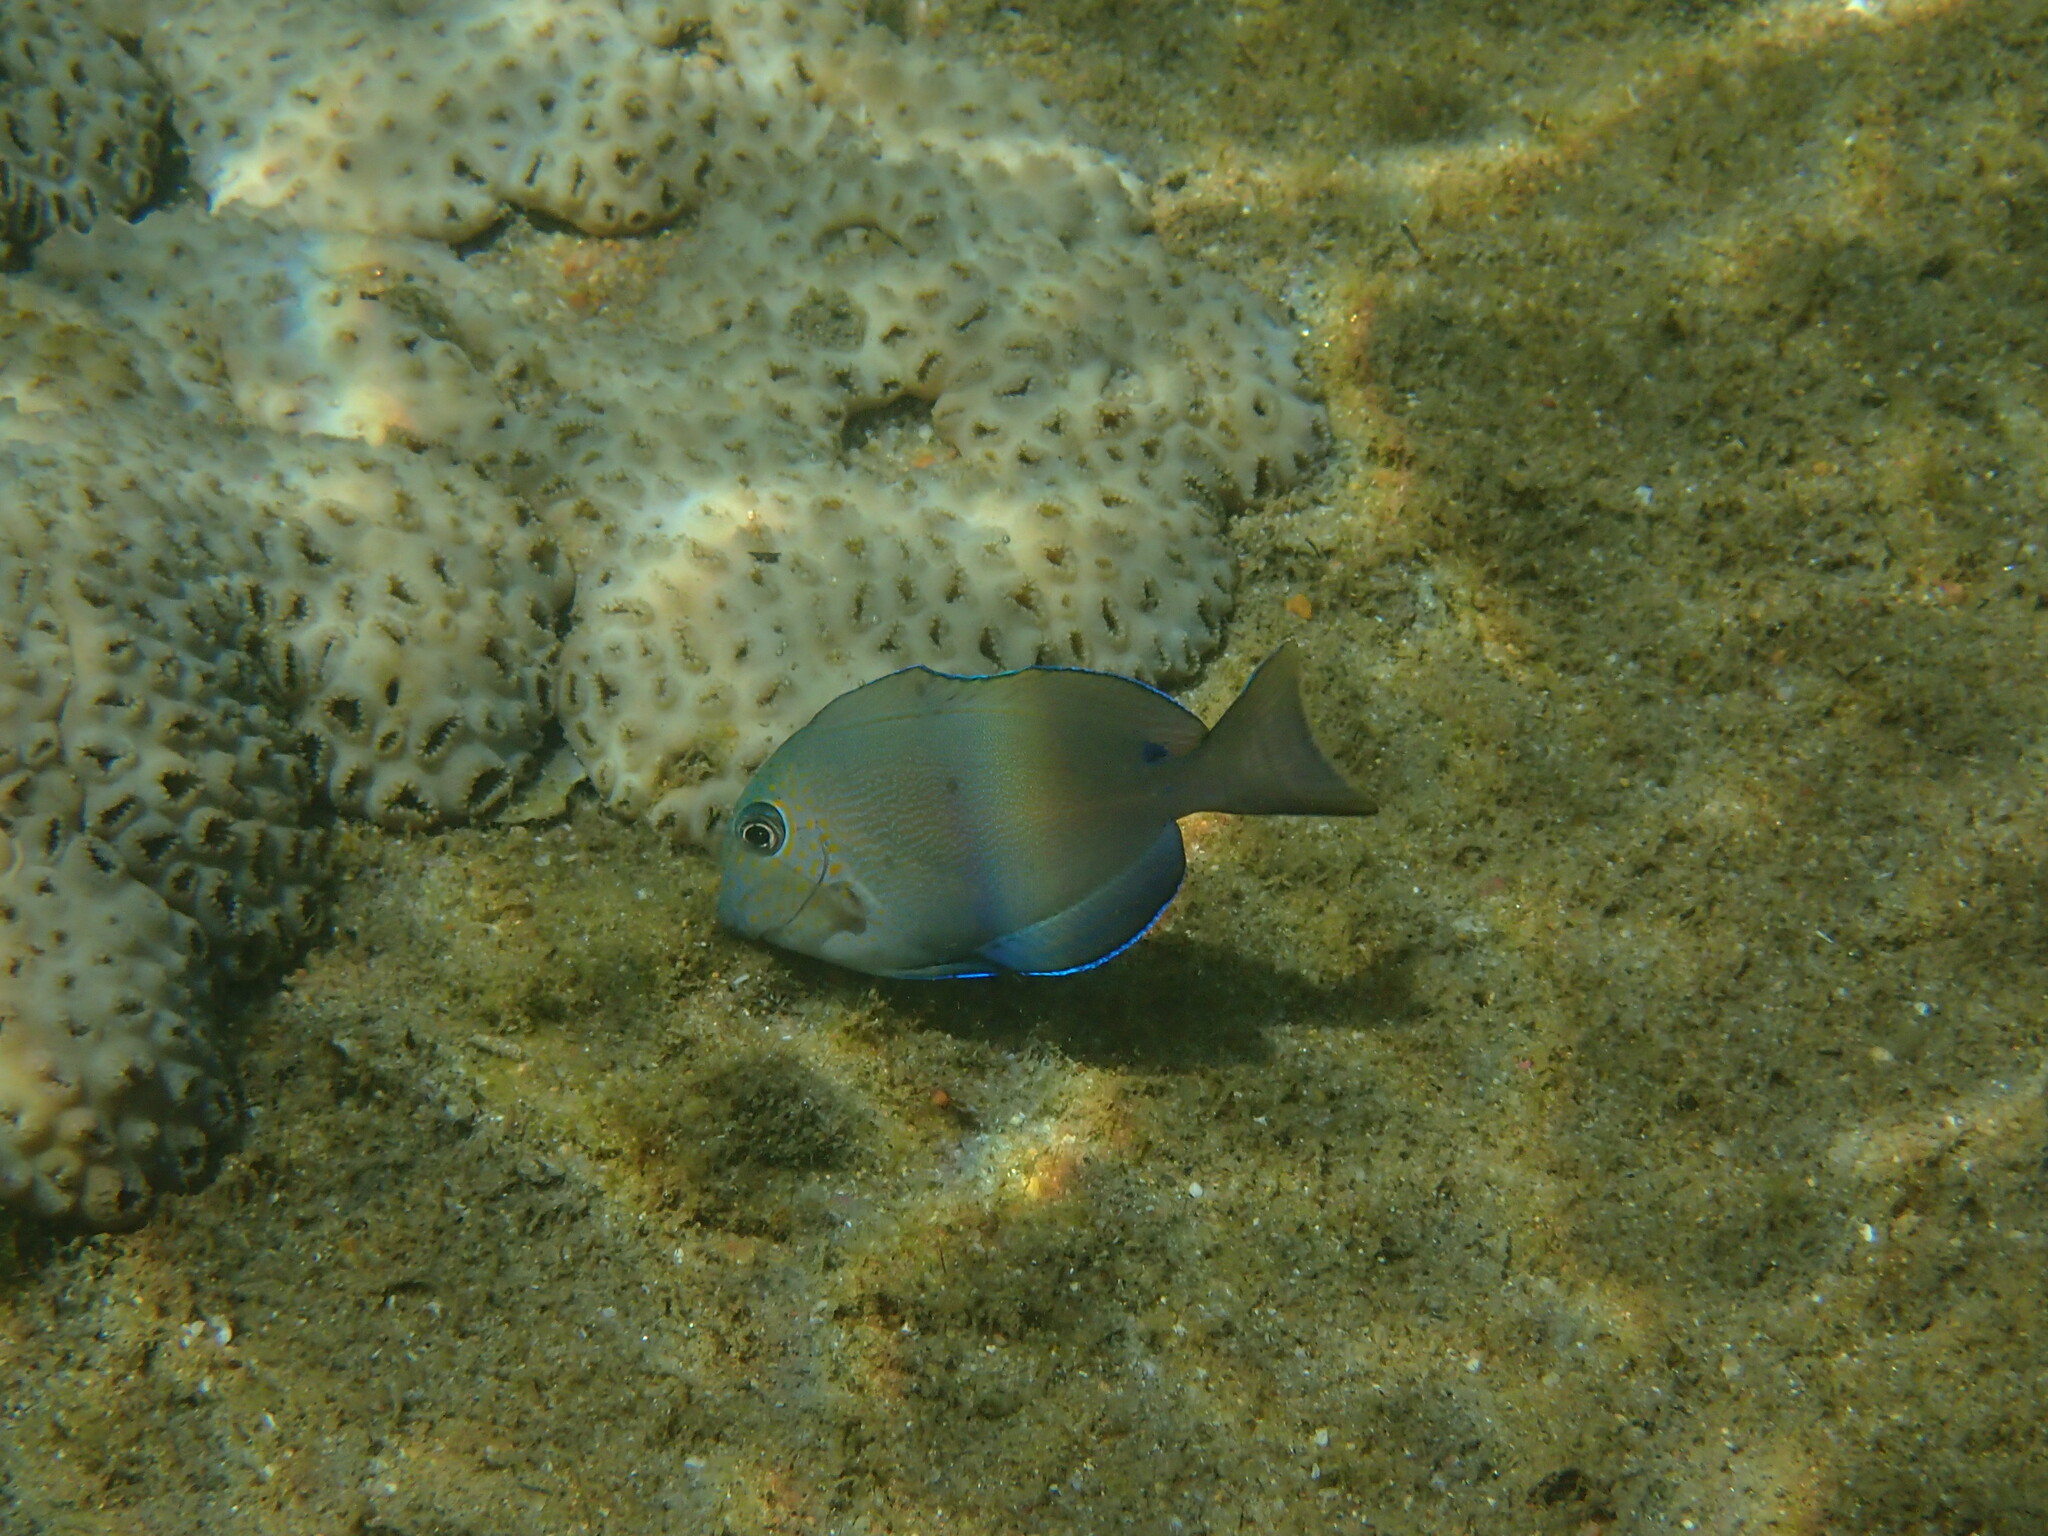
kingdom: Animalia
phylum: Chordata
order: Perciformes
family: Acanthuridae
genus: Acanthurus
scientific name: Acanthurus nigrofuscus
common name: Blackspot surgeonfish
